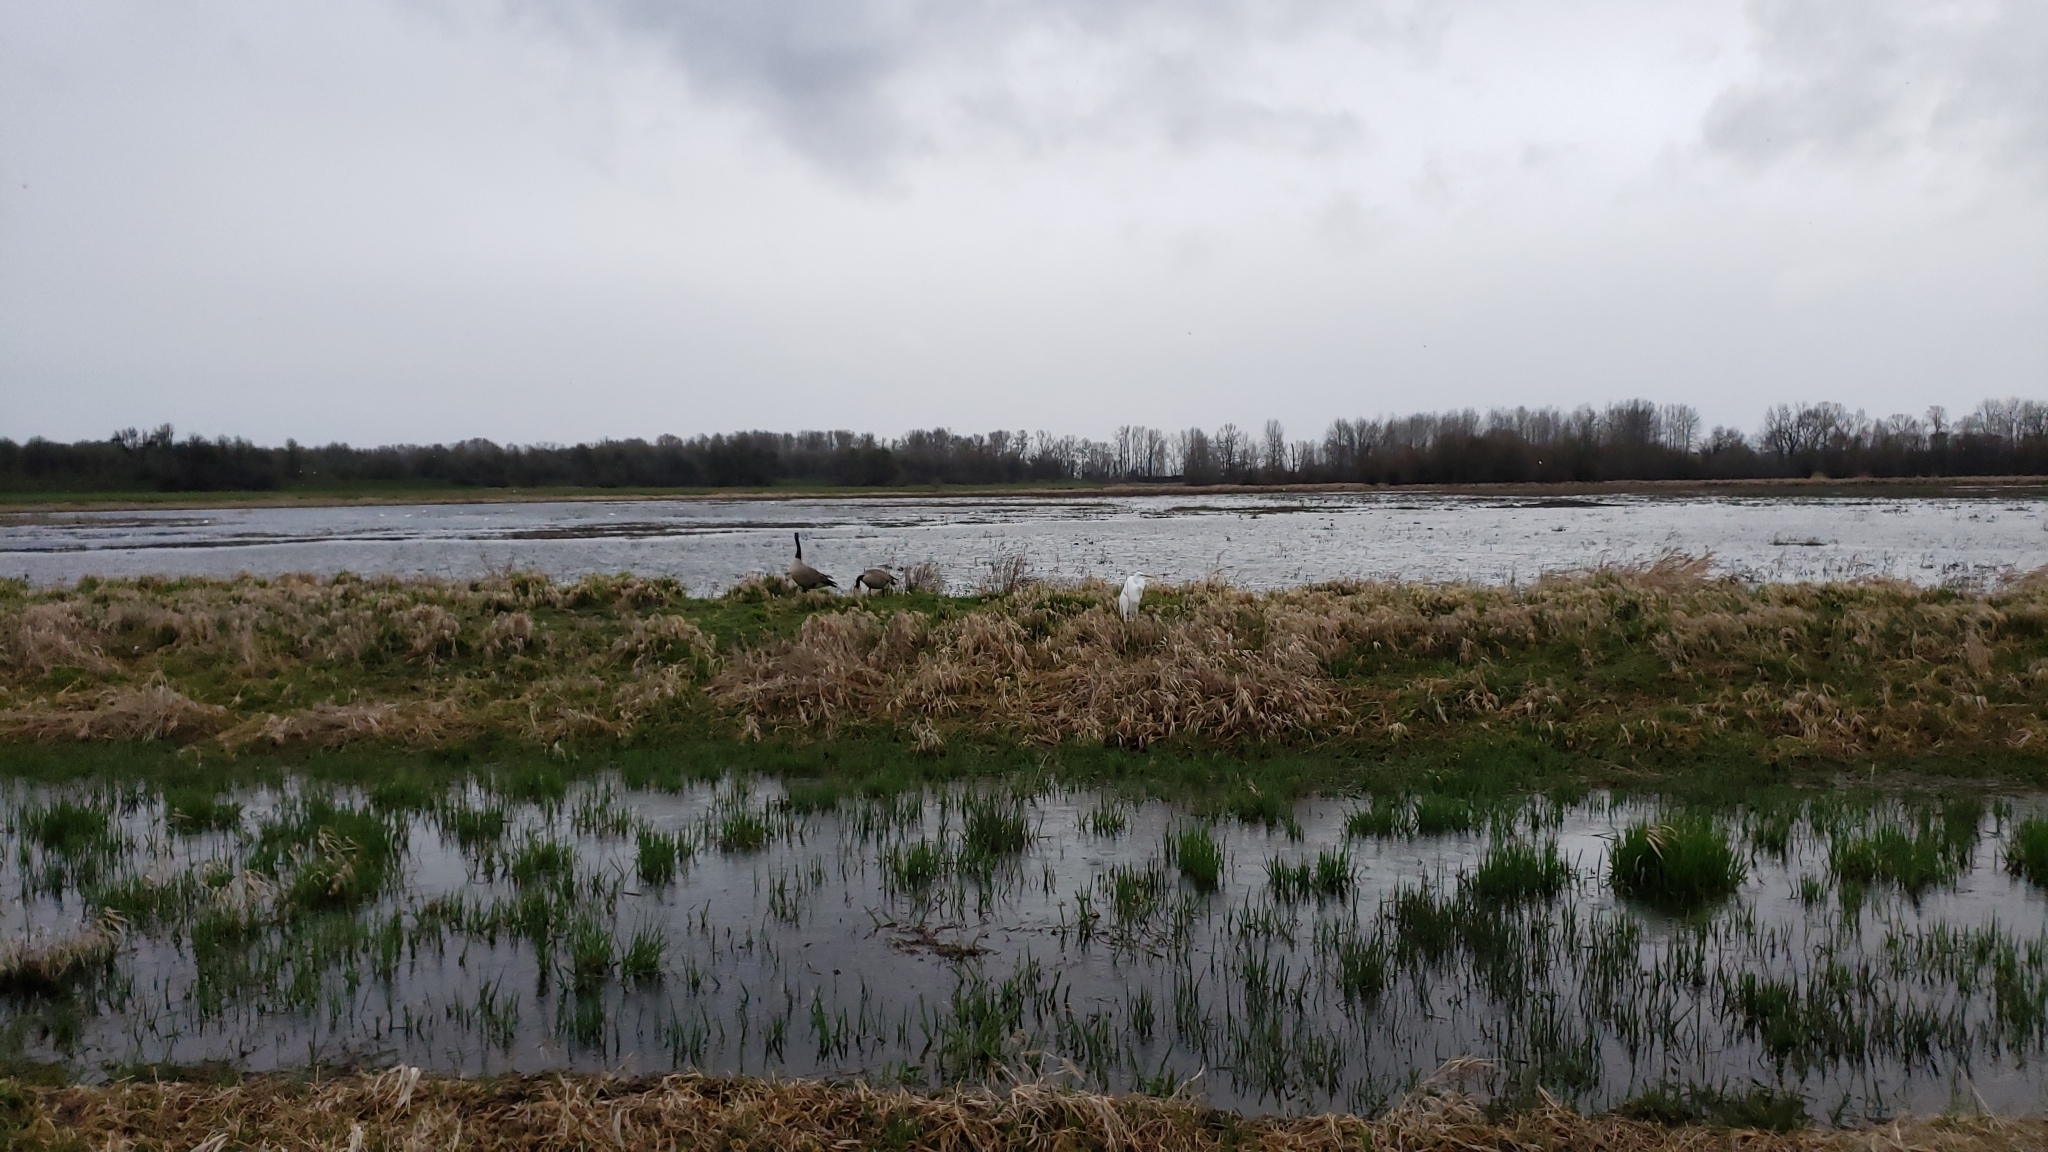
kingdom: Animalia
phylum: Chordata
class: Aves
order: Anseriformes
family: Anatidae
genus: Branta
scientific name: Branta canadensis
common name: Canada goose
